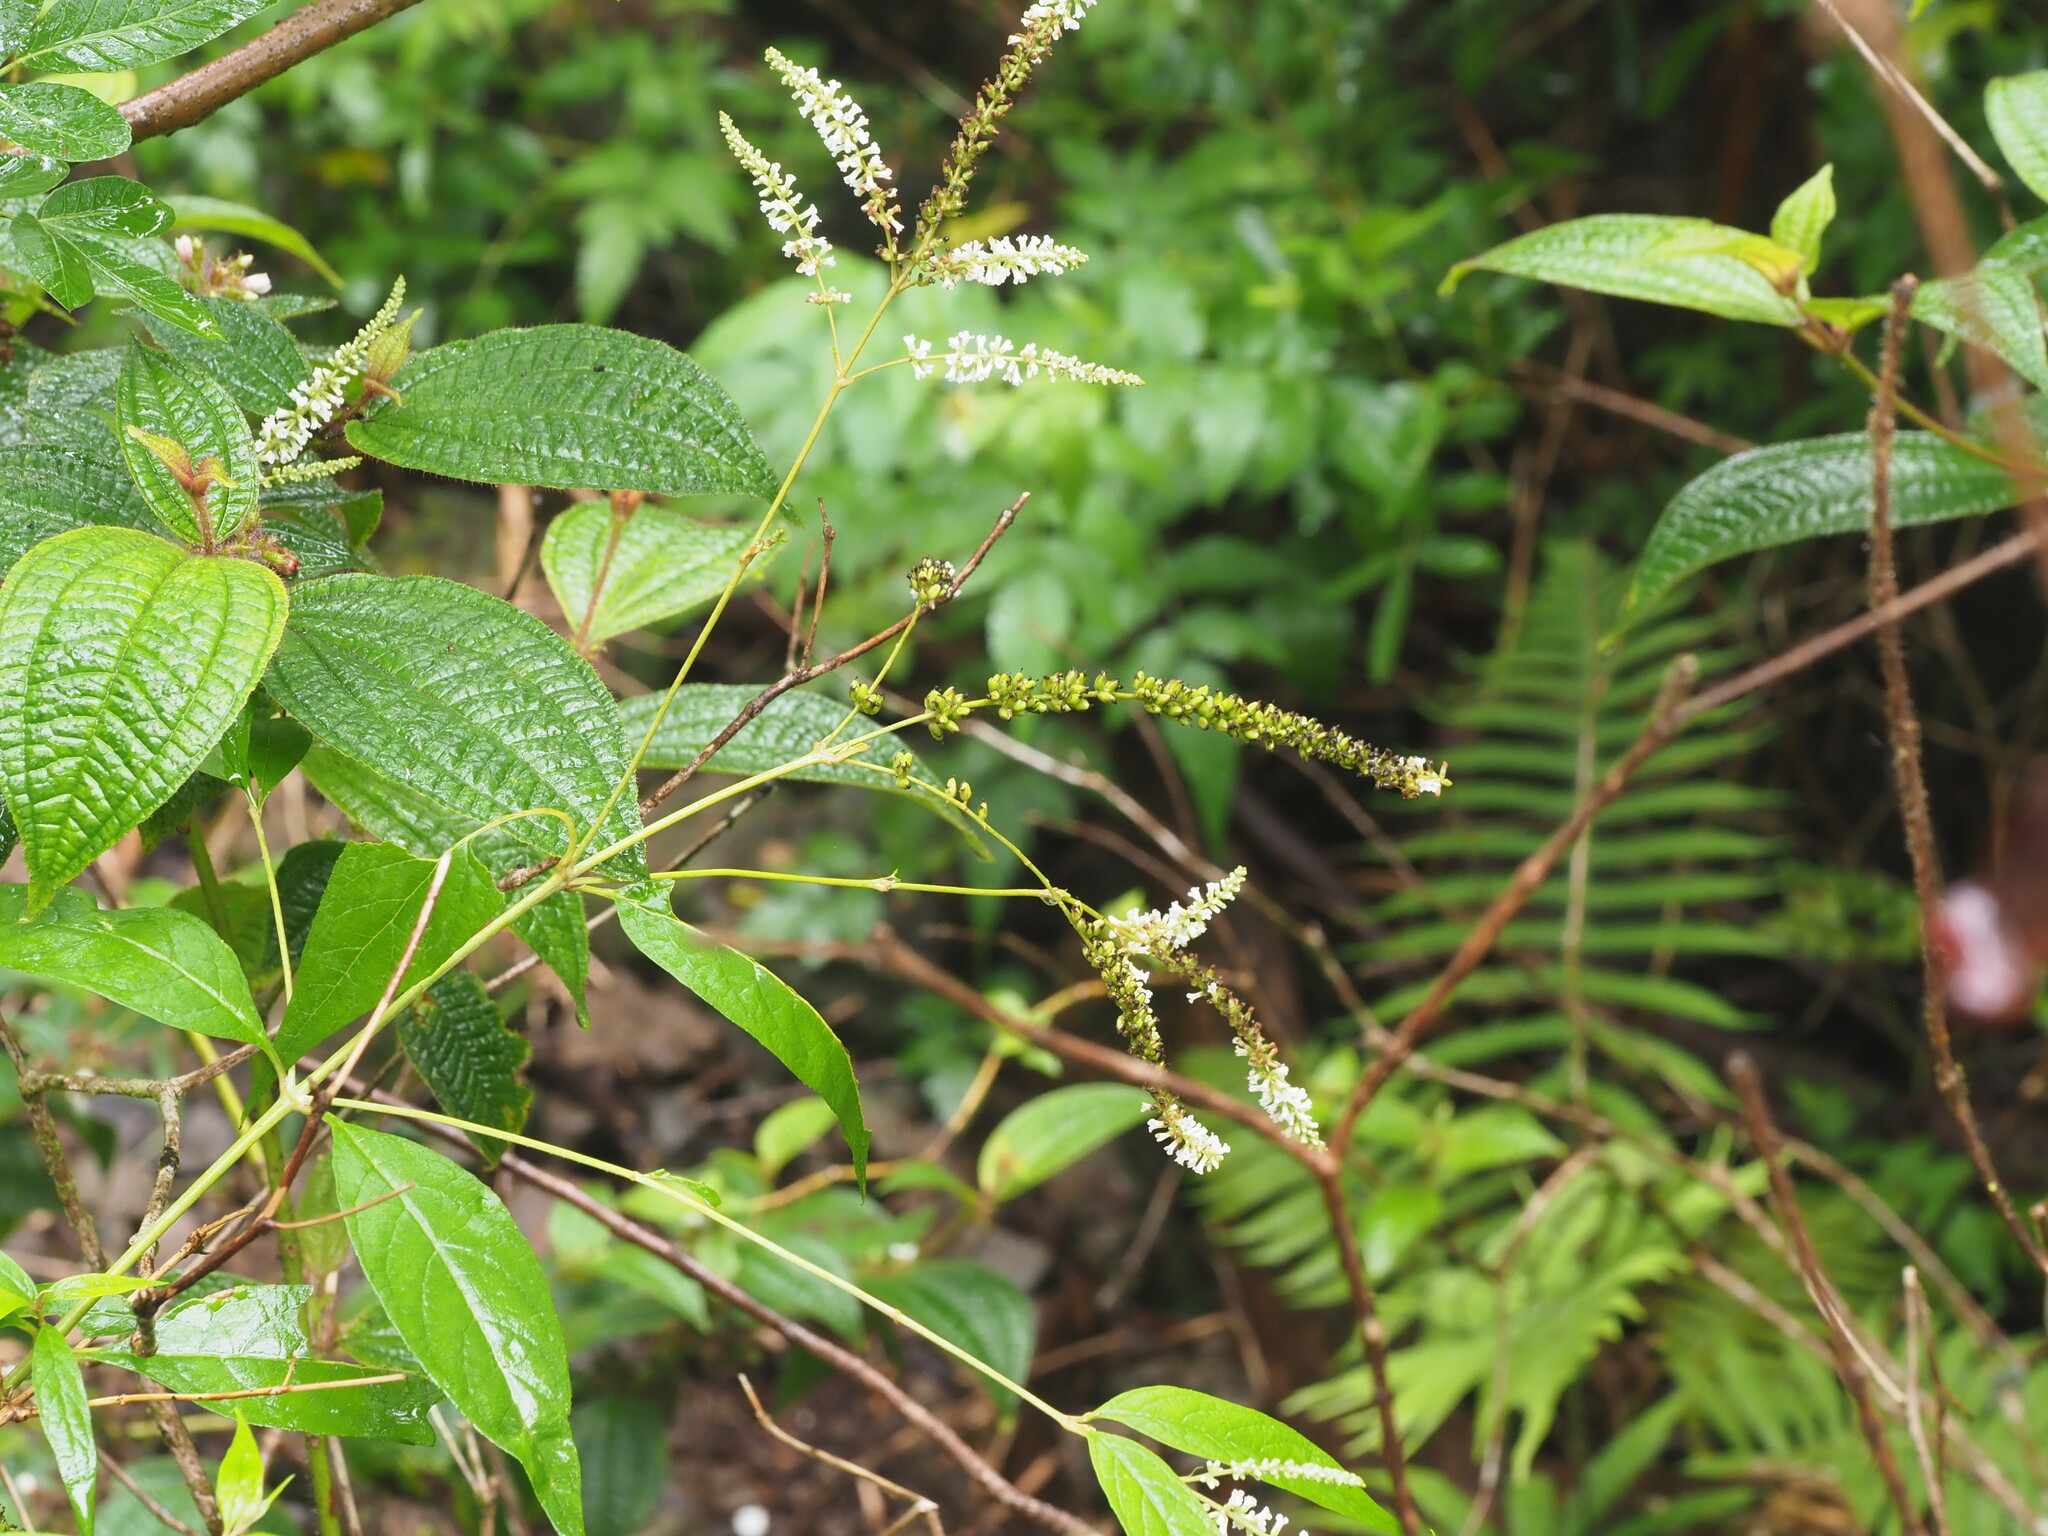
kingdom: Plantae
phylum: Tracheophyta
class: Magnoliopsida
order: Lamiales
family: Scrophulariaceae
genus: Buddleja
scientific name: Buddleja asiatica
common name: Dog tail
